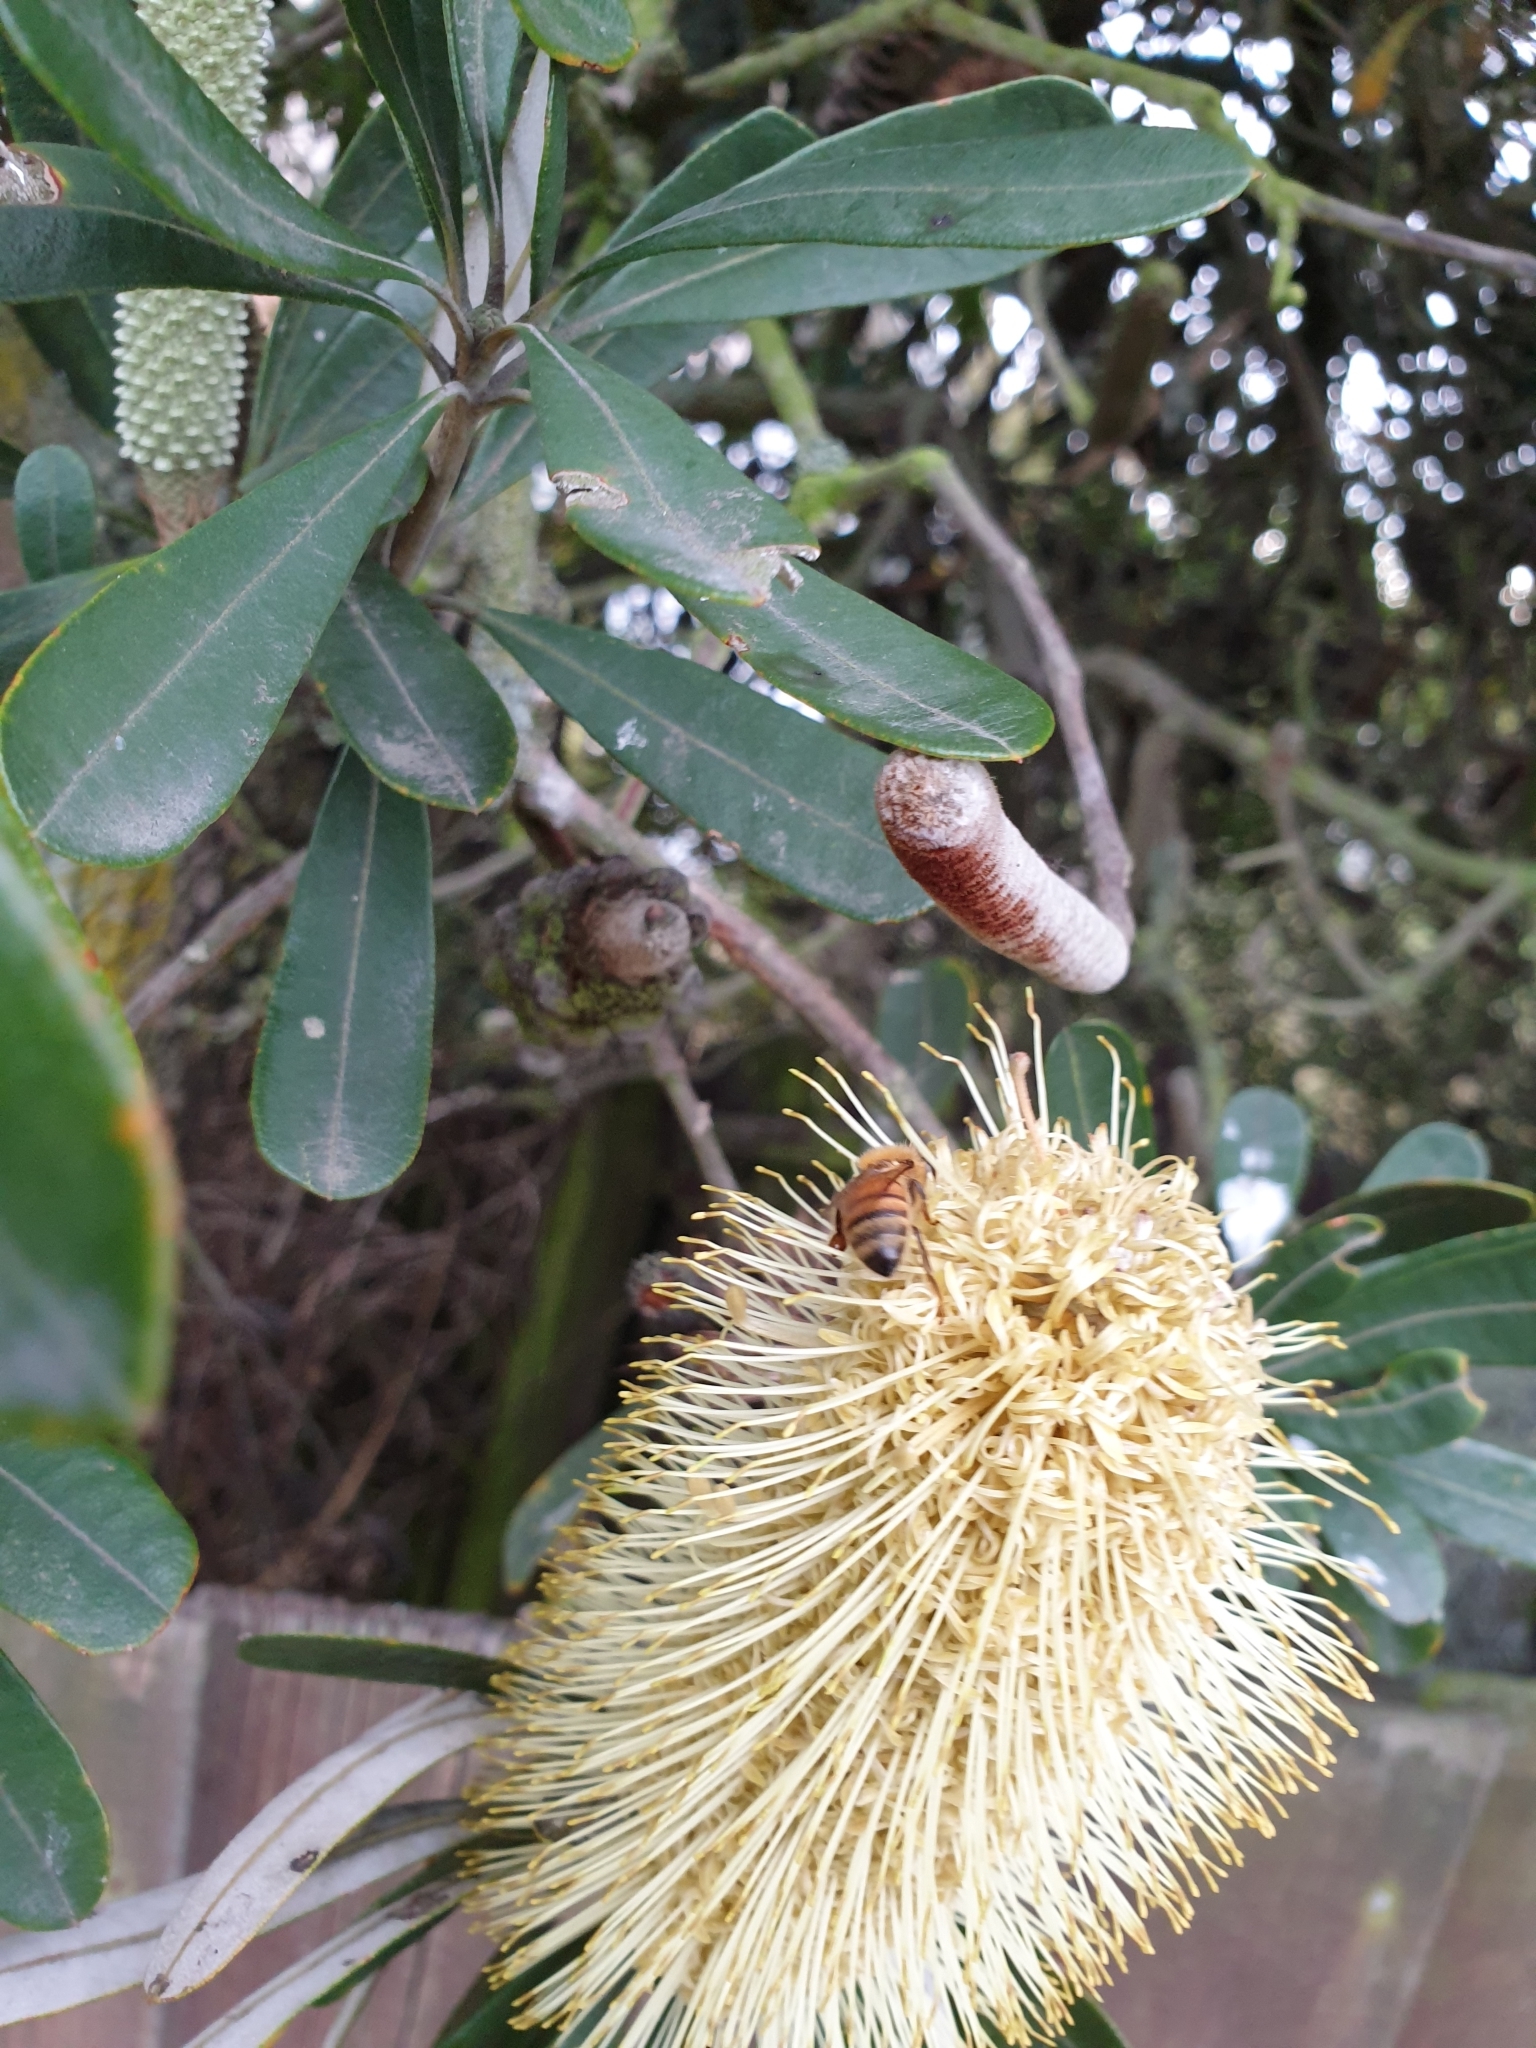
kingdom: Animalia
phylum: Arthropoda
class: Insecta
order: Hymenoptera
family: Apidae
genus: Apis
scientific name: Apis mellifera
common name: Honey bee
